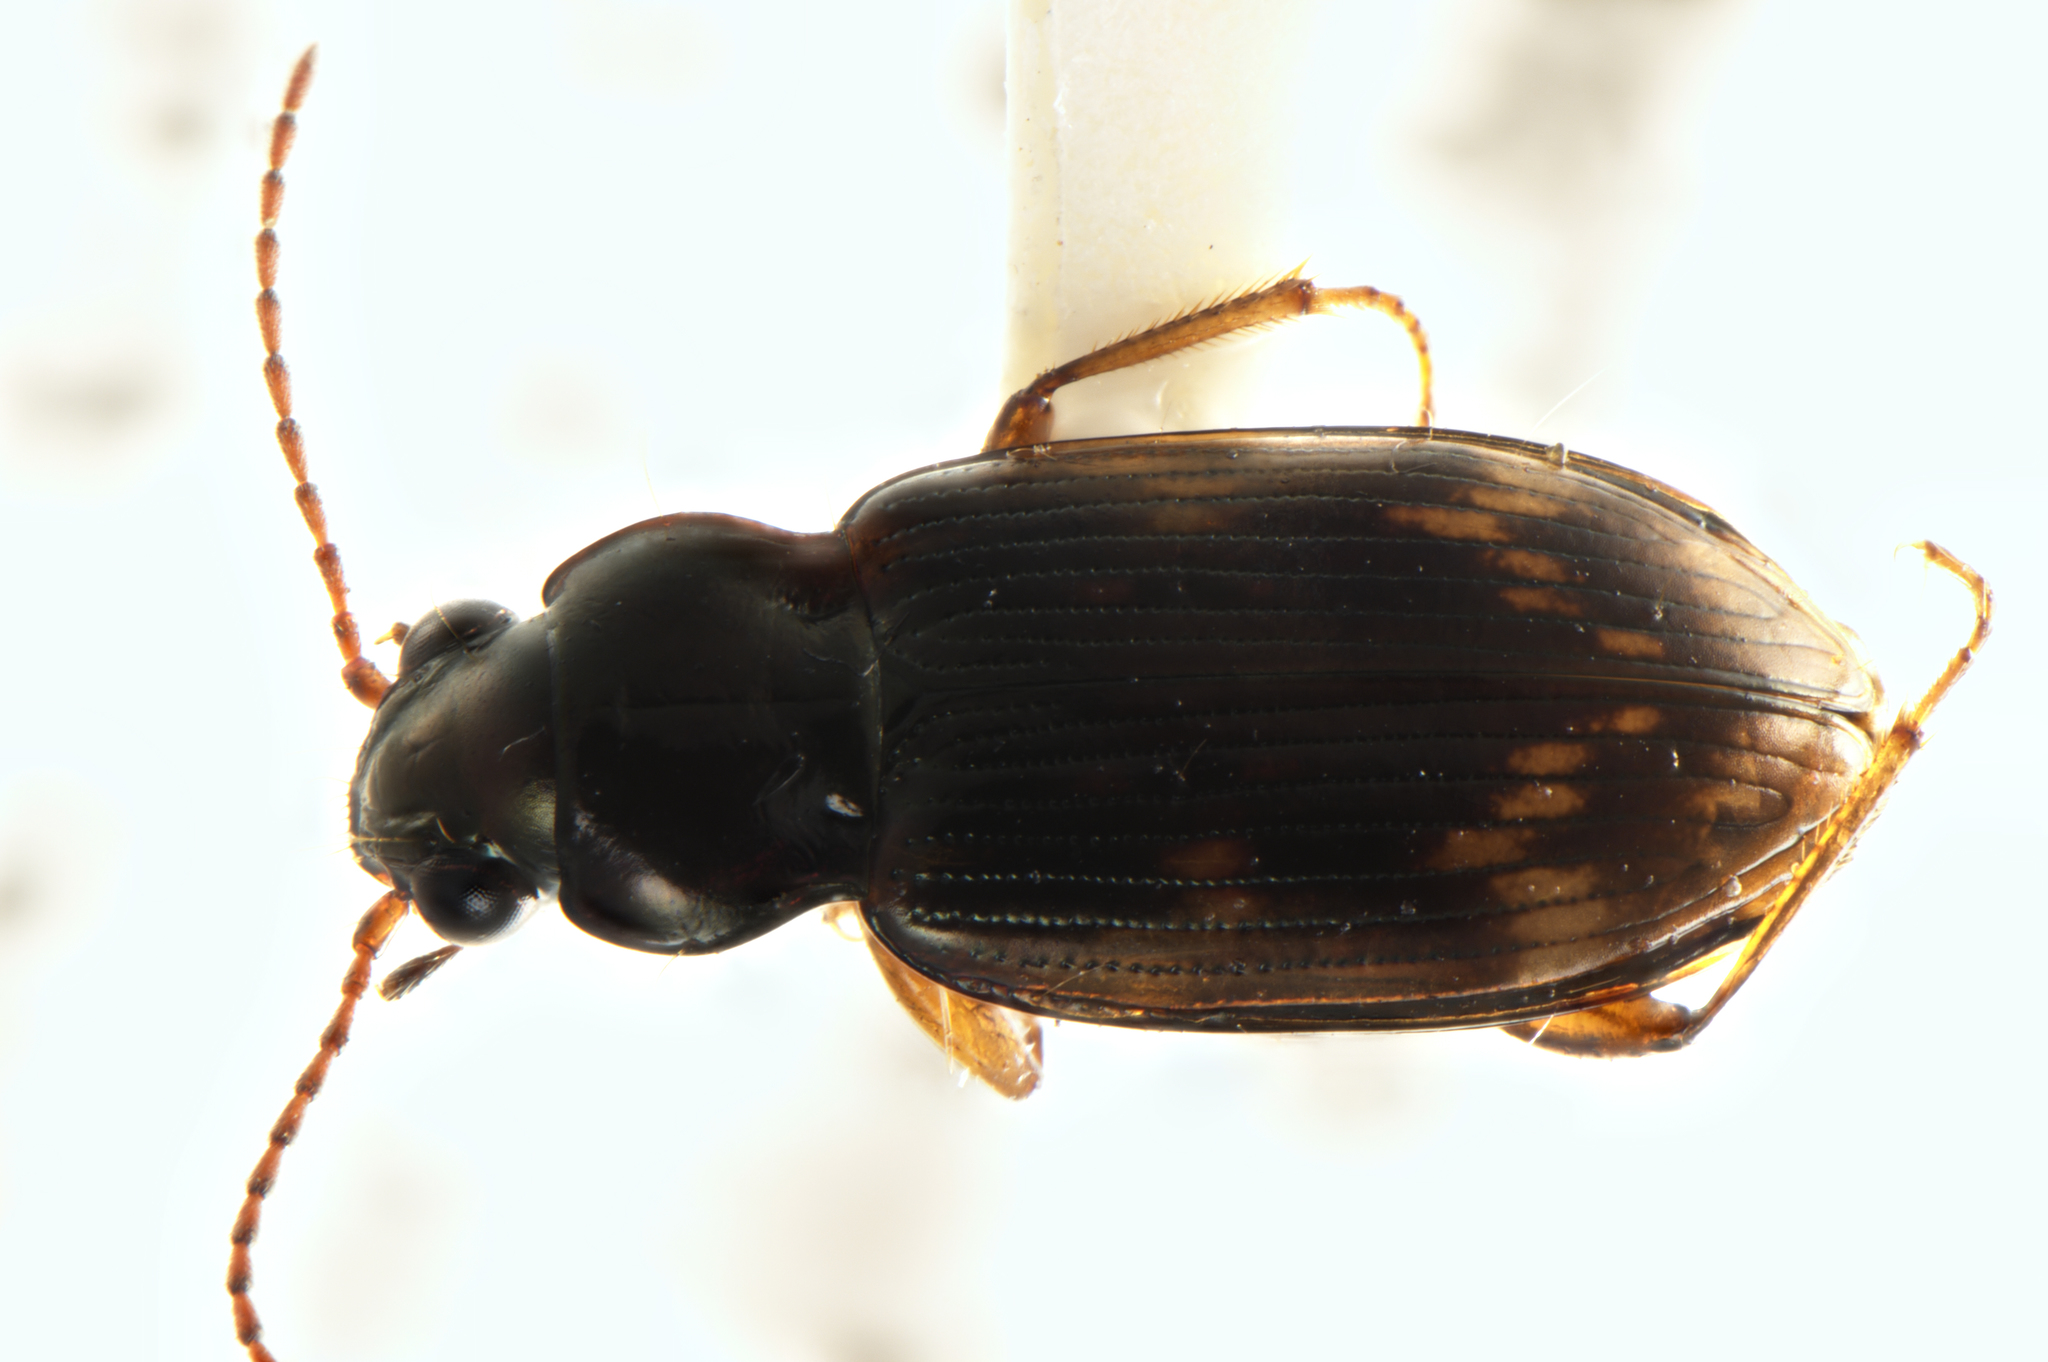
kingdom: Animalia
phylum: Arthropoda
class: Insecta
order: Coleoptera
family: Carabidae
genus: Bembidion
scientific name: Bembidion brullei
